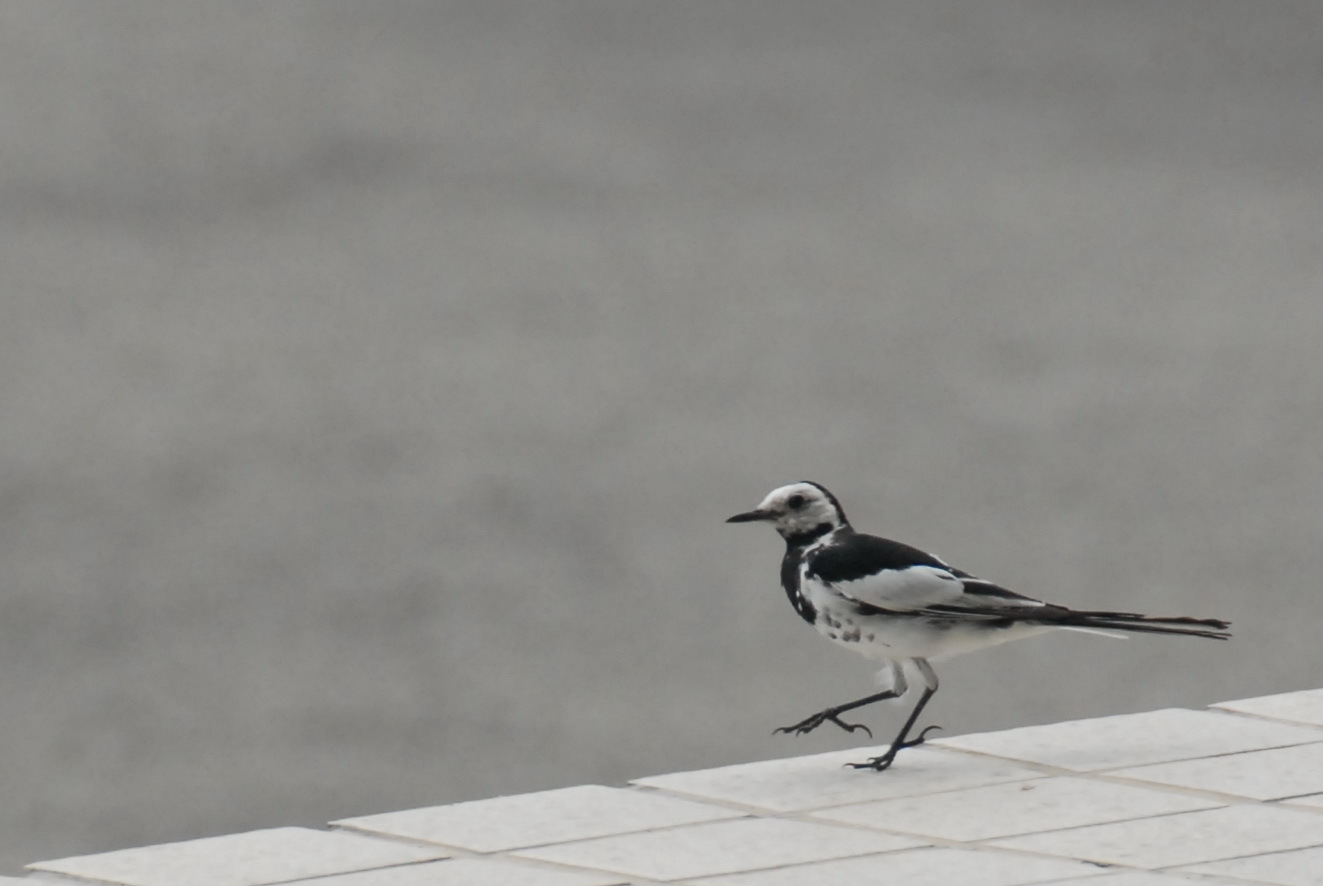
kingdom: Animalia
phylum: Chordata
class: Aves
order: Passeriformes
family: Motacillidae
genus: Motacilla
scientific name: Motacilla alba
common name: White wagtail
